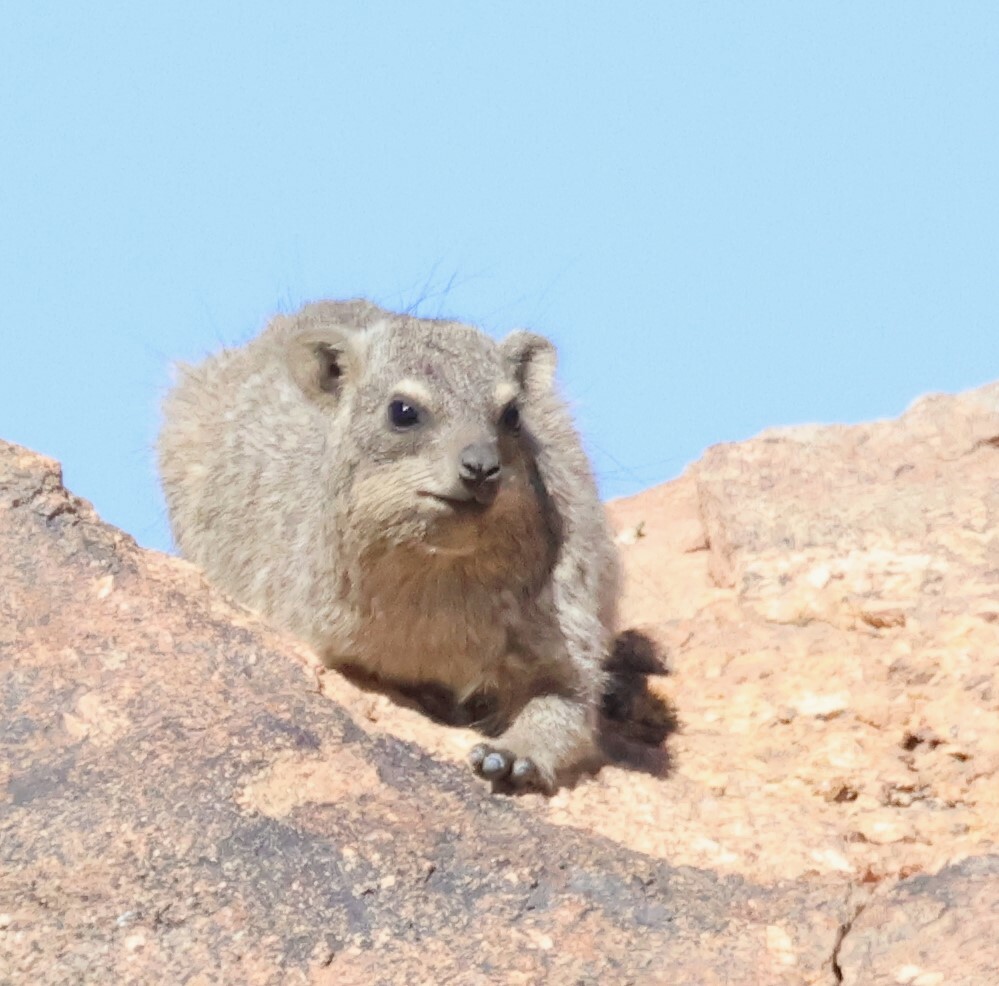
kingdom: Animalia
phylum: Chordata
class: Mammalia
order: Hyracoidea
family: Procaviidae
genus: Procavia
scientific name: Procavia capensis
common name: Rock hyrax
